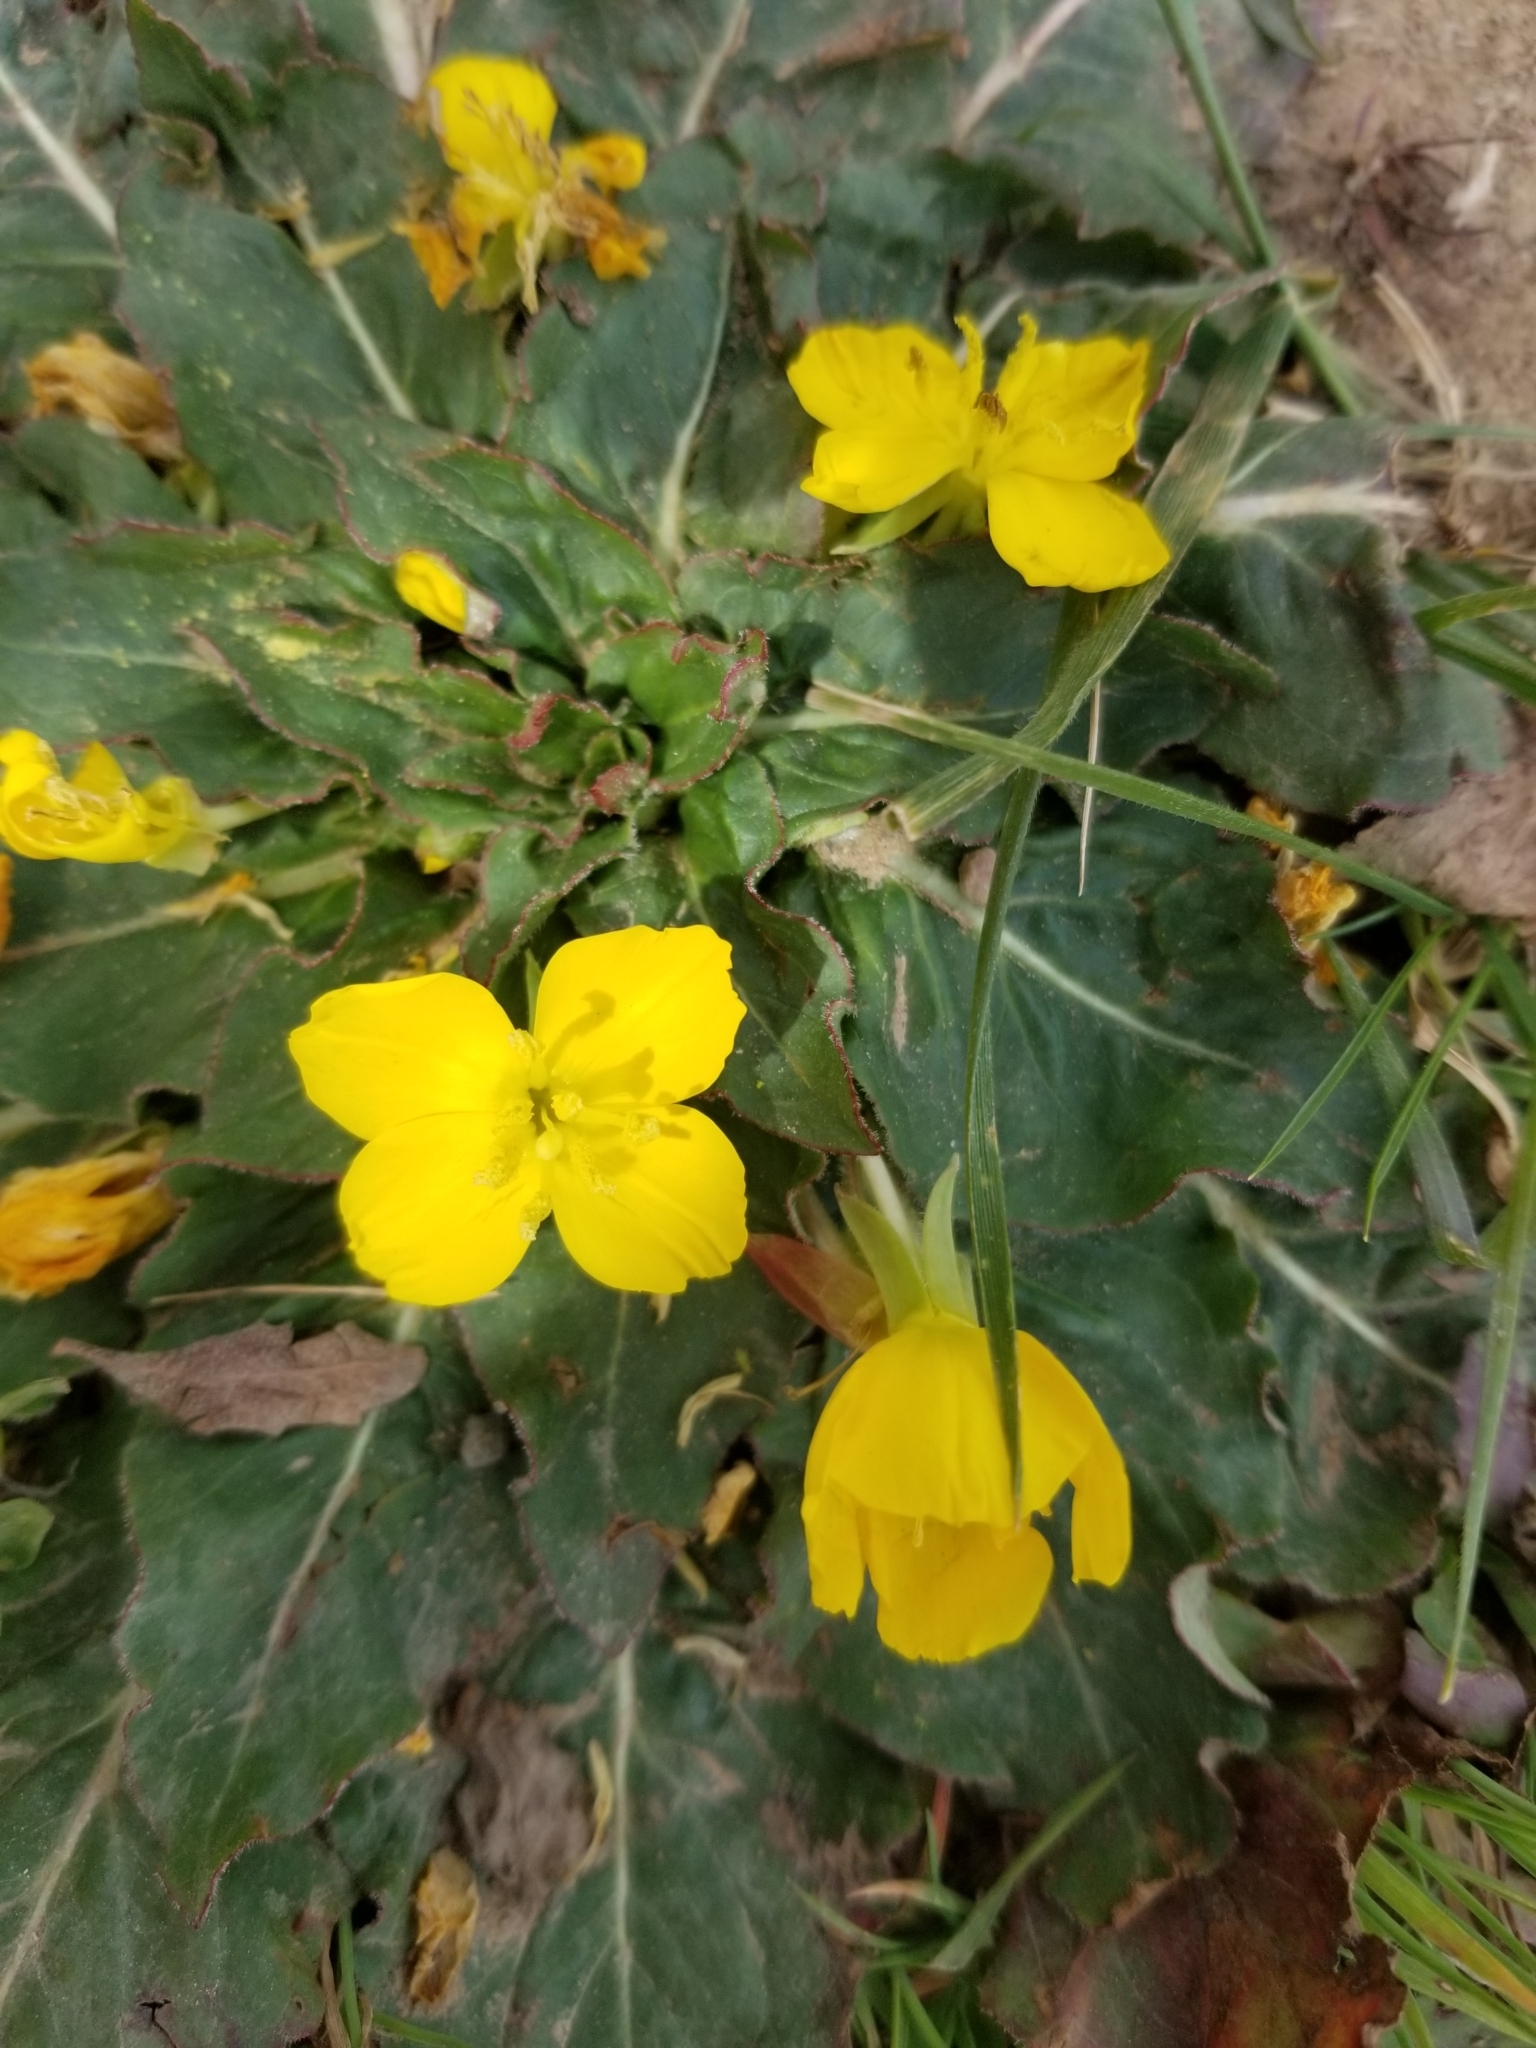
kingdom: Plantae
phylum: Tracheophyta
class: Magnoliopsida
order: Myrtales
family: Onagraceae
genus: Taraxia
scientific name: Taraxia ovata
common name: Goldeneggs
